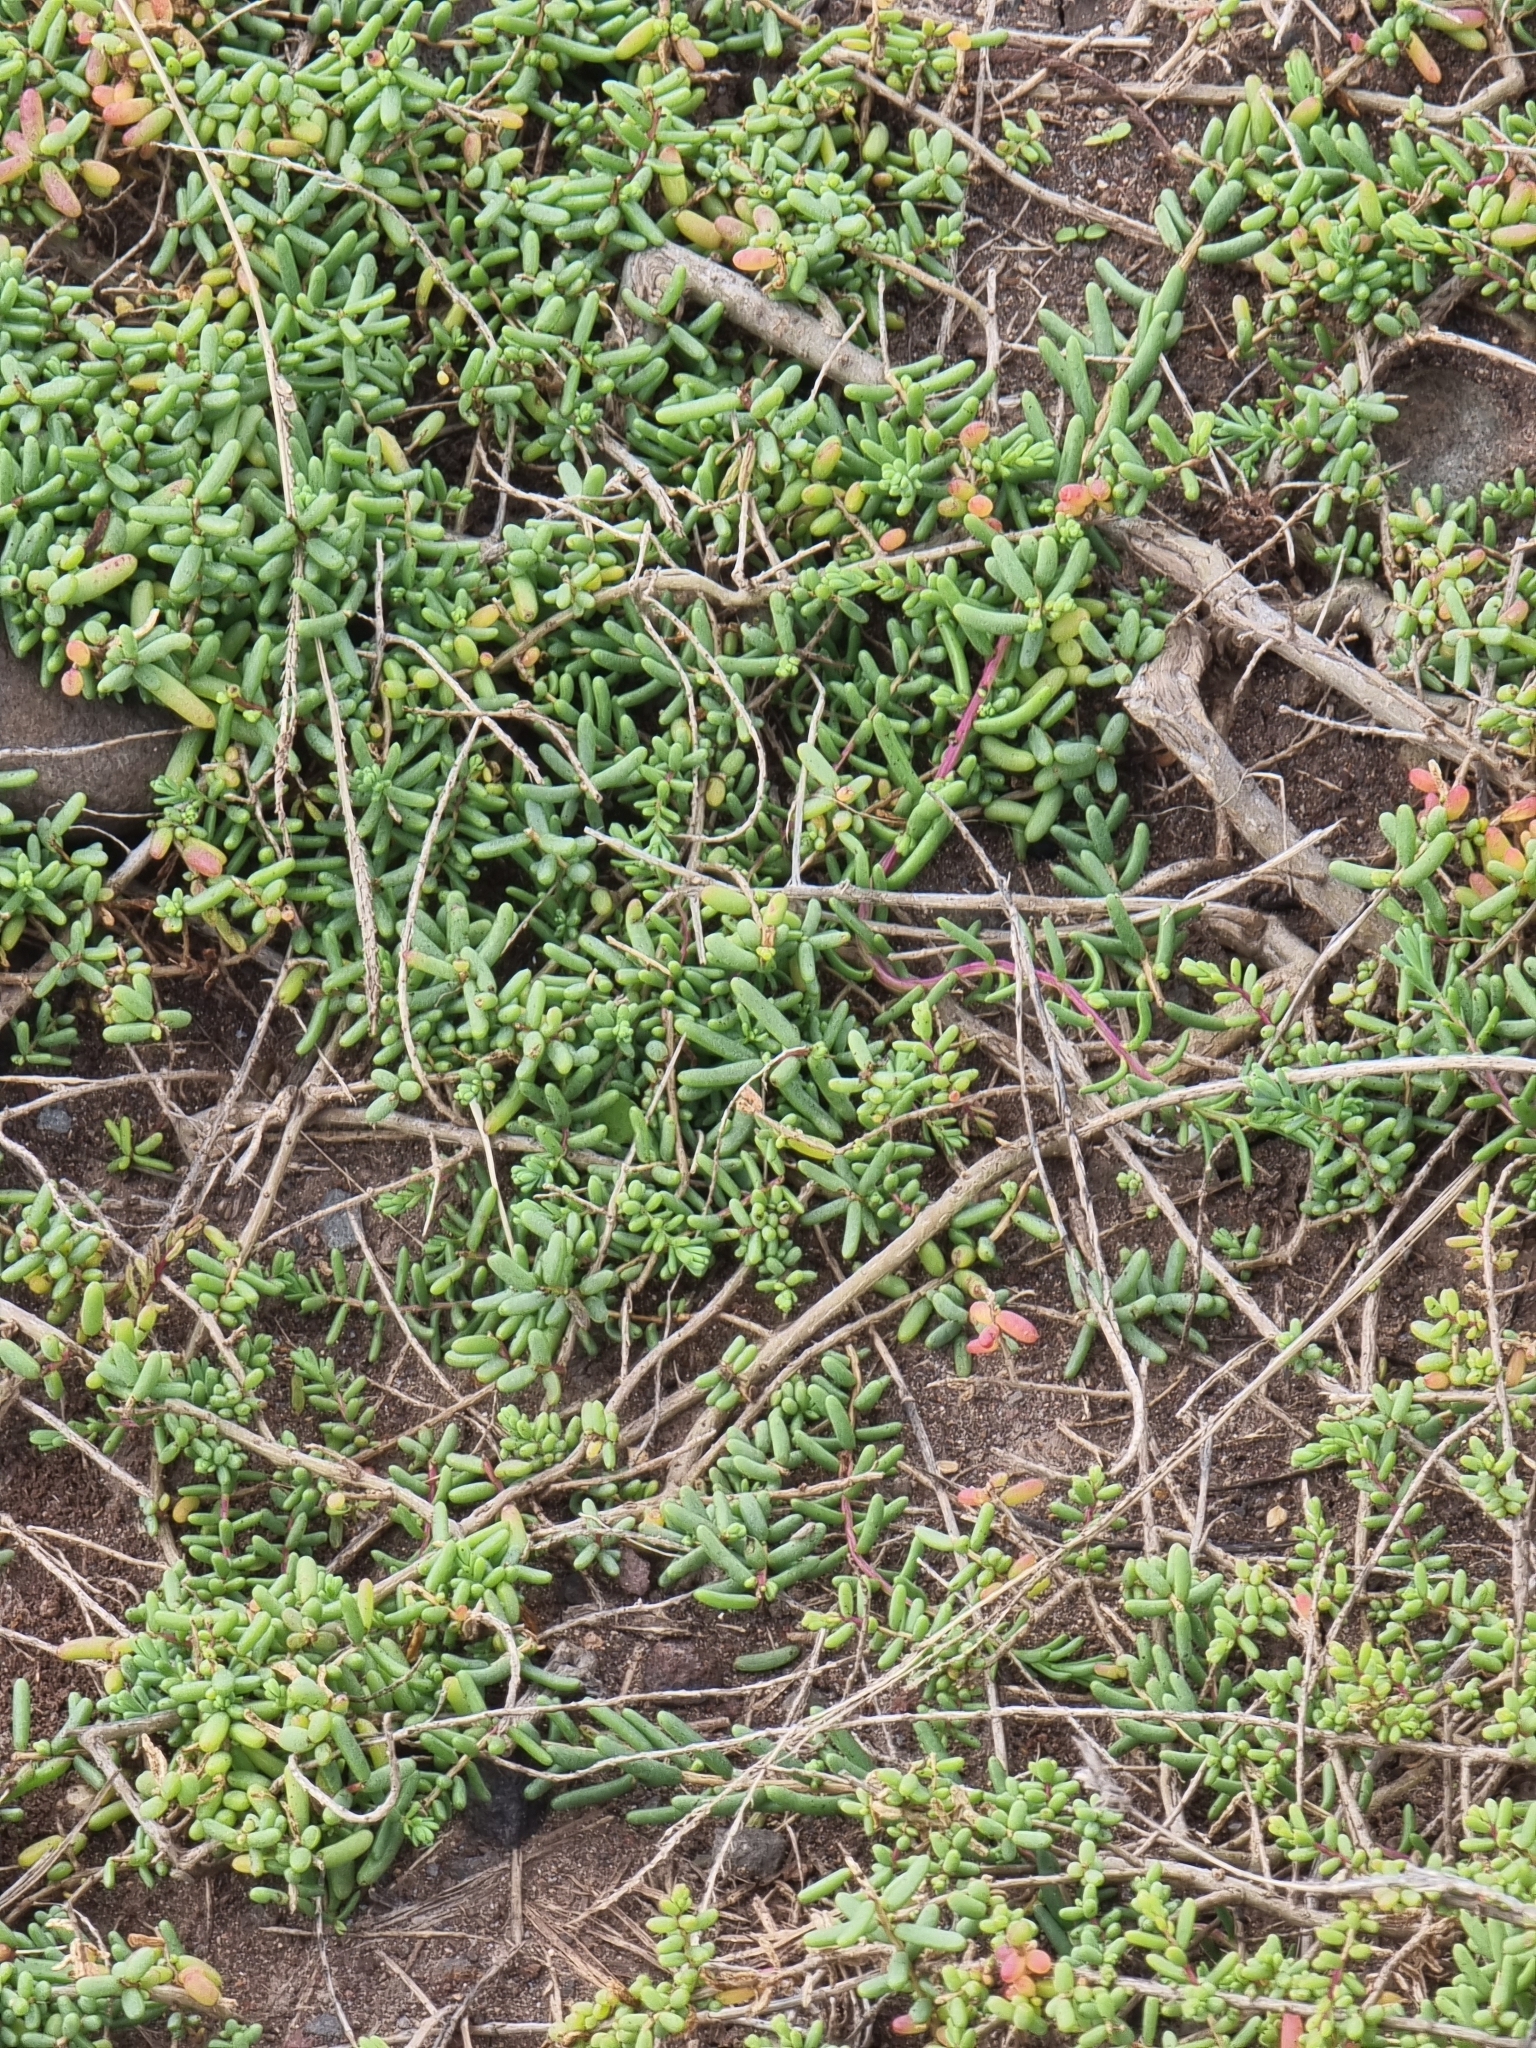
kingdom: Plantae
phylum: Tracheophyta
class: Magnoliopsida
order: Caryophyllales
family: Amaranthaceae
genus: Suaeda
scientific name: Suaeda vera
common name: Shrubby sea-blite
